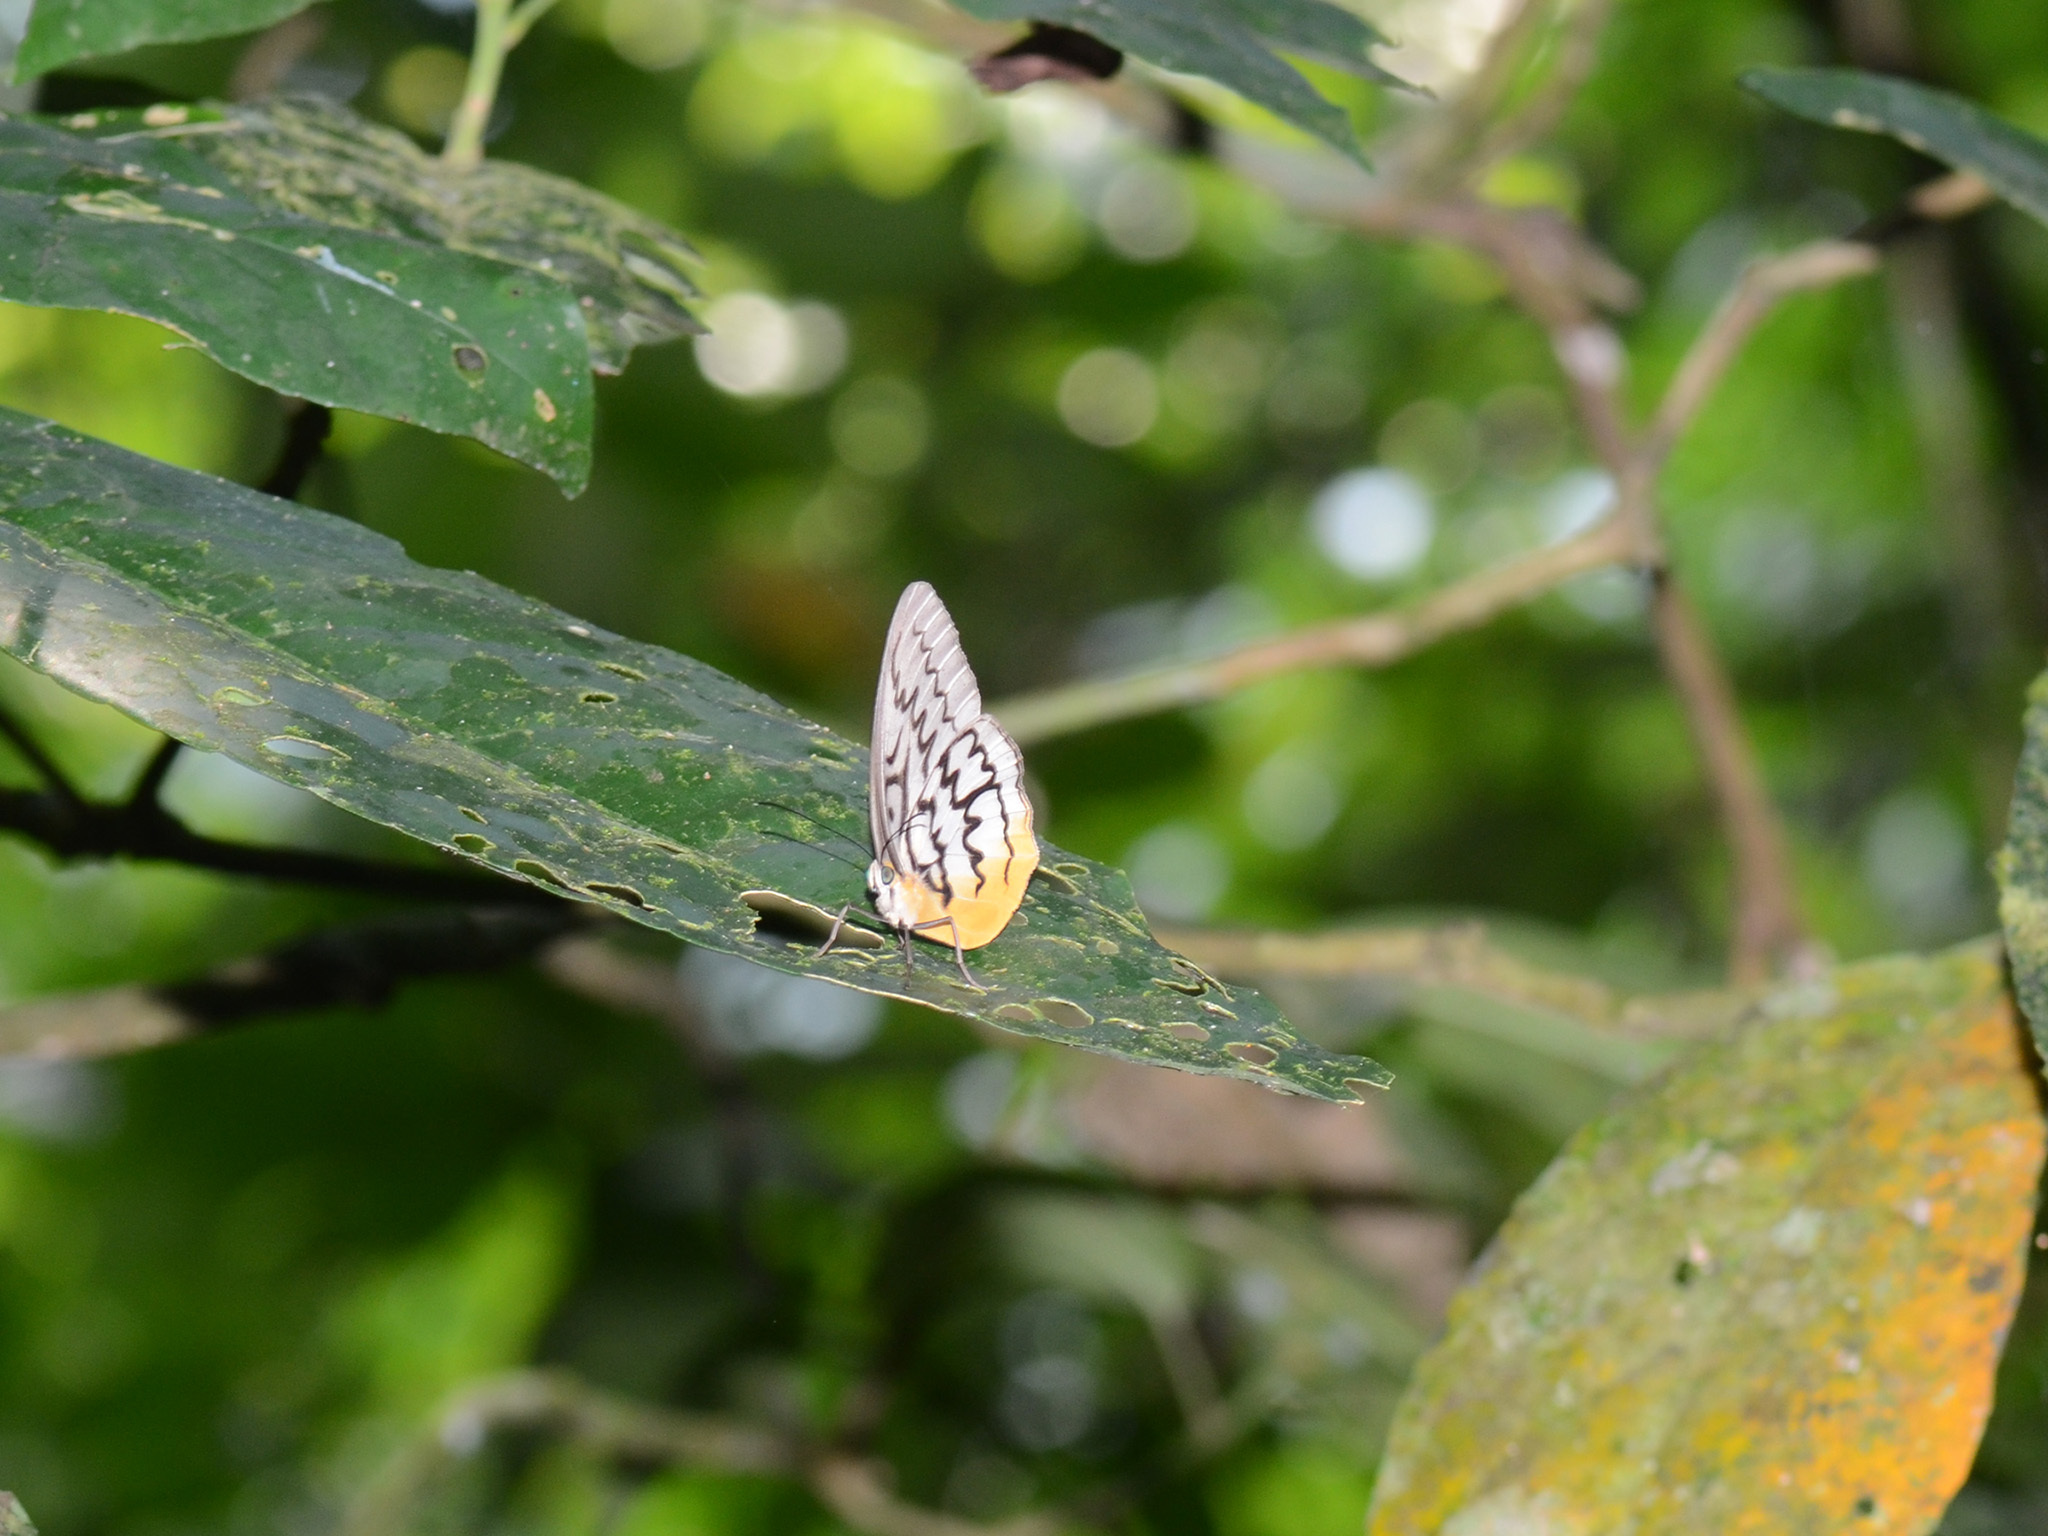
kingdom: Animalia
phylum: Arthropoda
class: Insecta
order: Lepidoptera
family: Nymphalidae
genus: Faunis
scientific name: Faunis Melanocyma faunula
